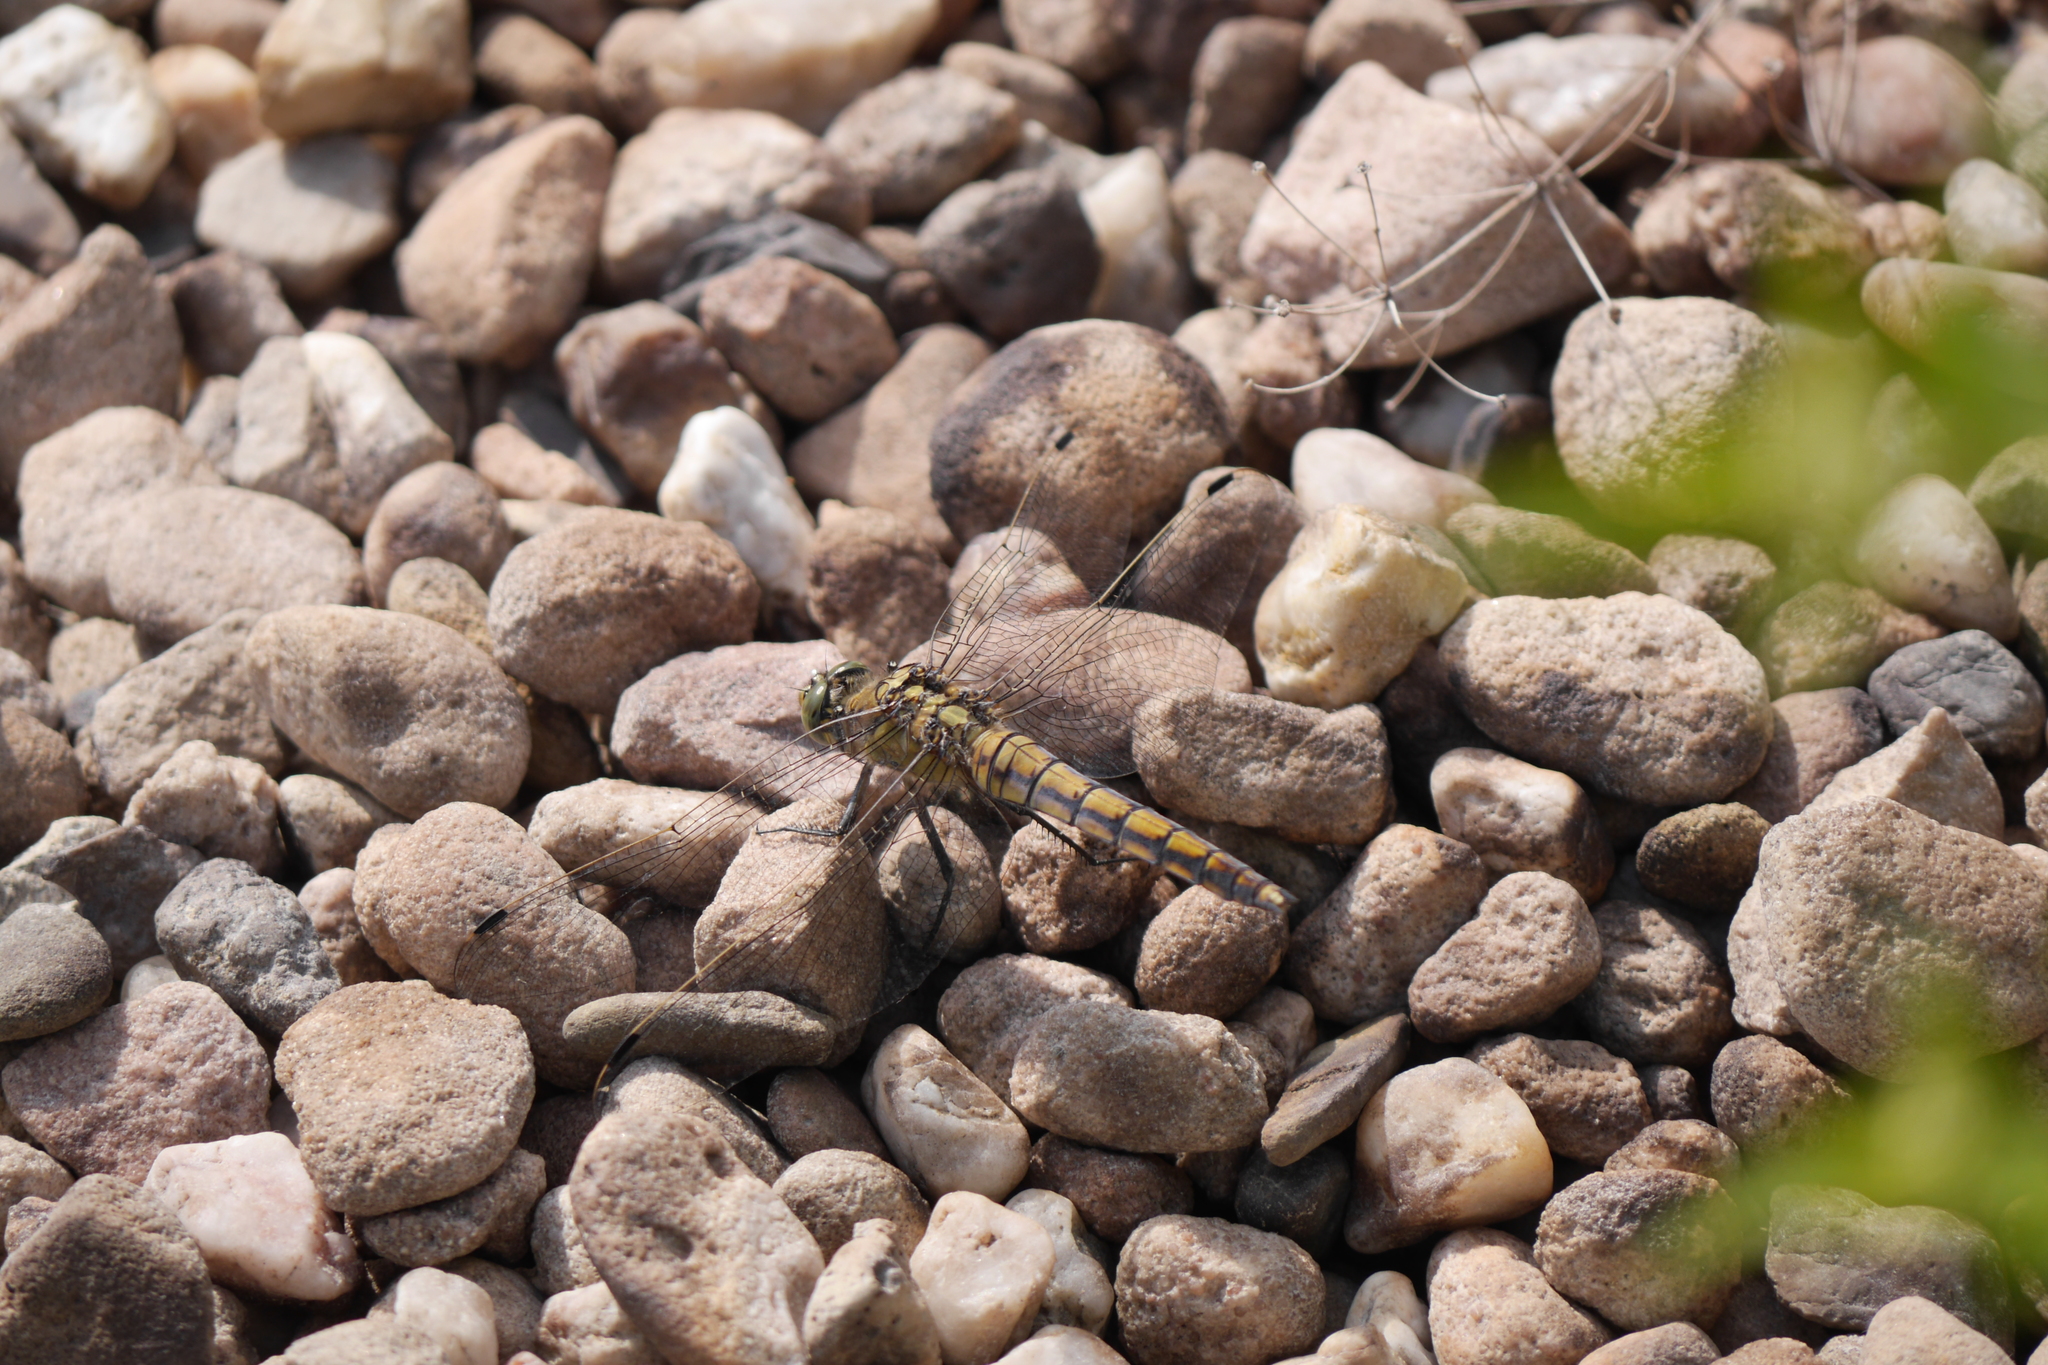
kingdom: Animalia
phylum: Arthropoda
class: Insecta
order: Odonata
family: Libellulidae
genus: Orthetrum
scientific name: Orthetrum cancellatum
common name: Black-tailed skimmer
